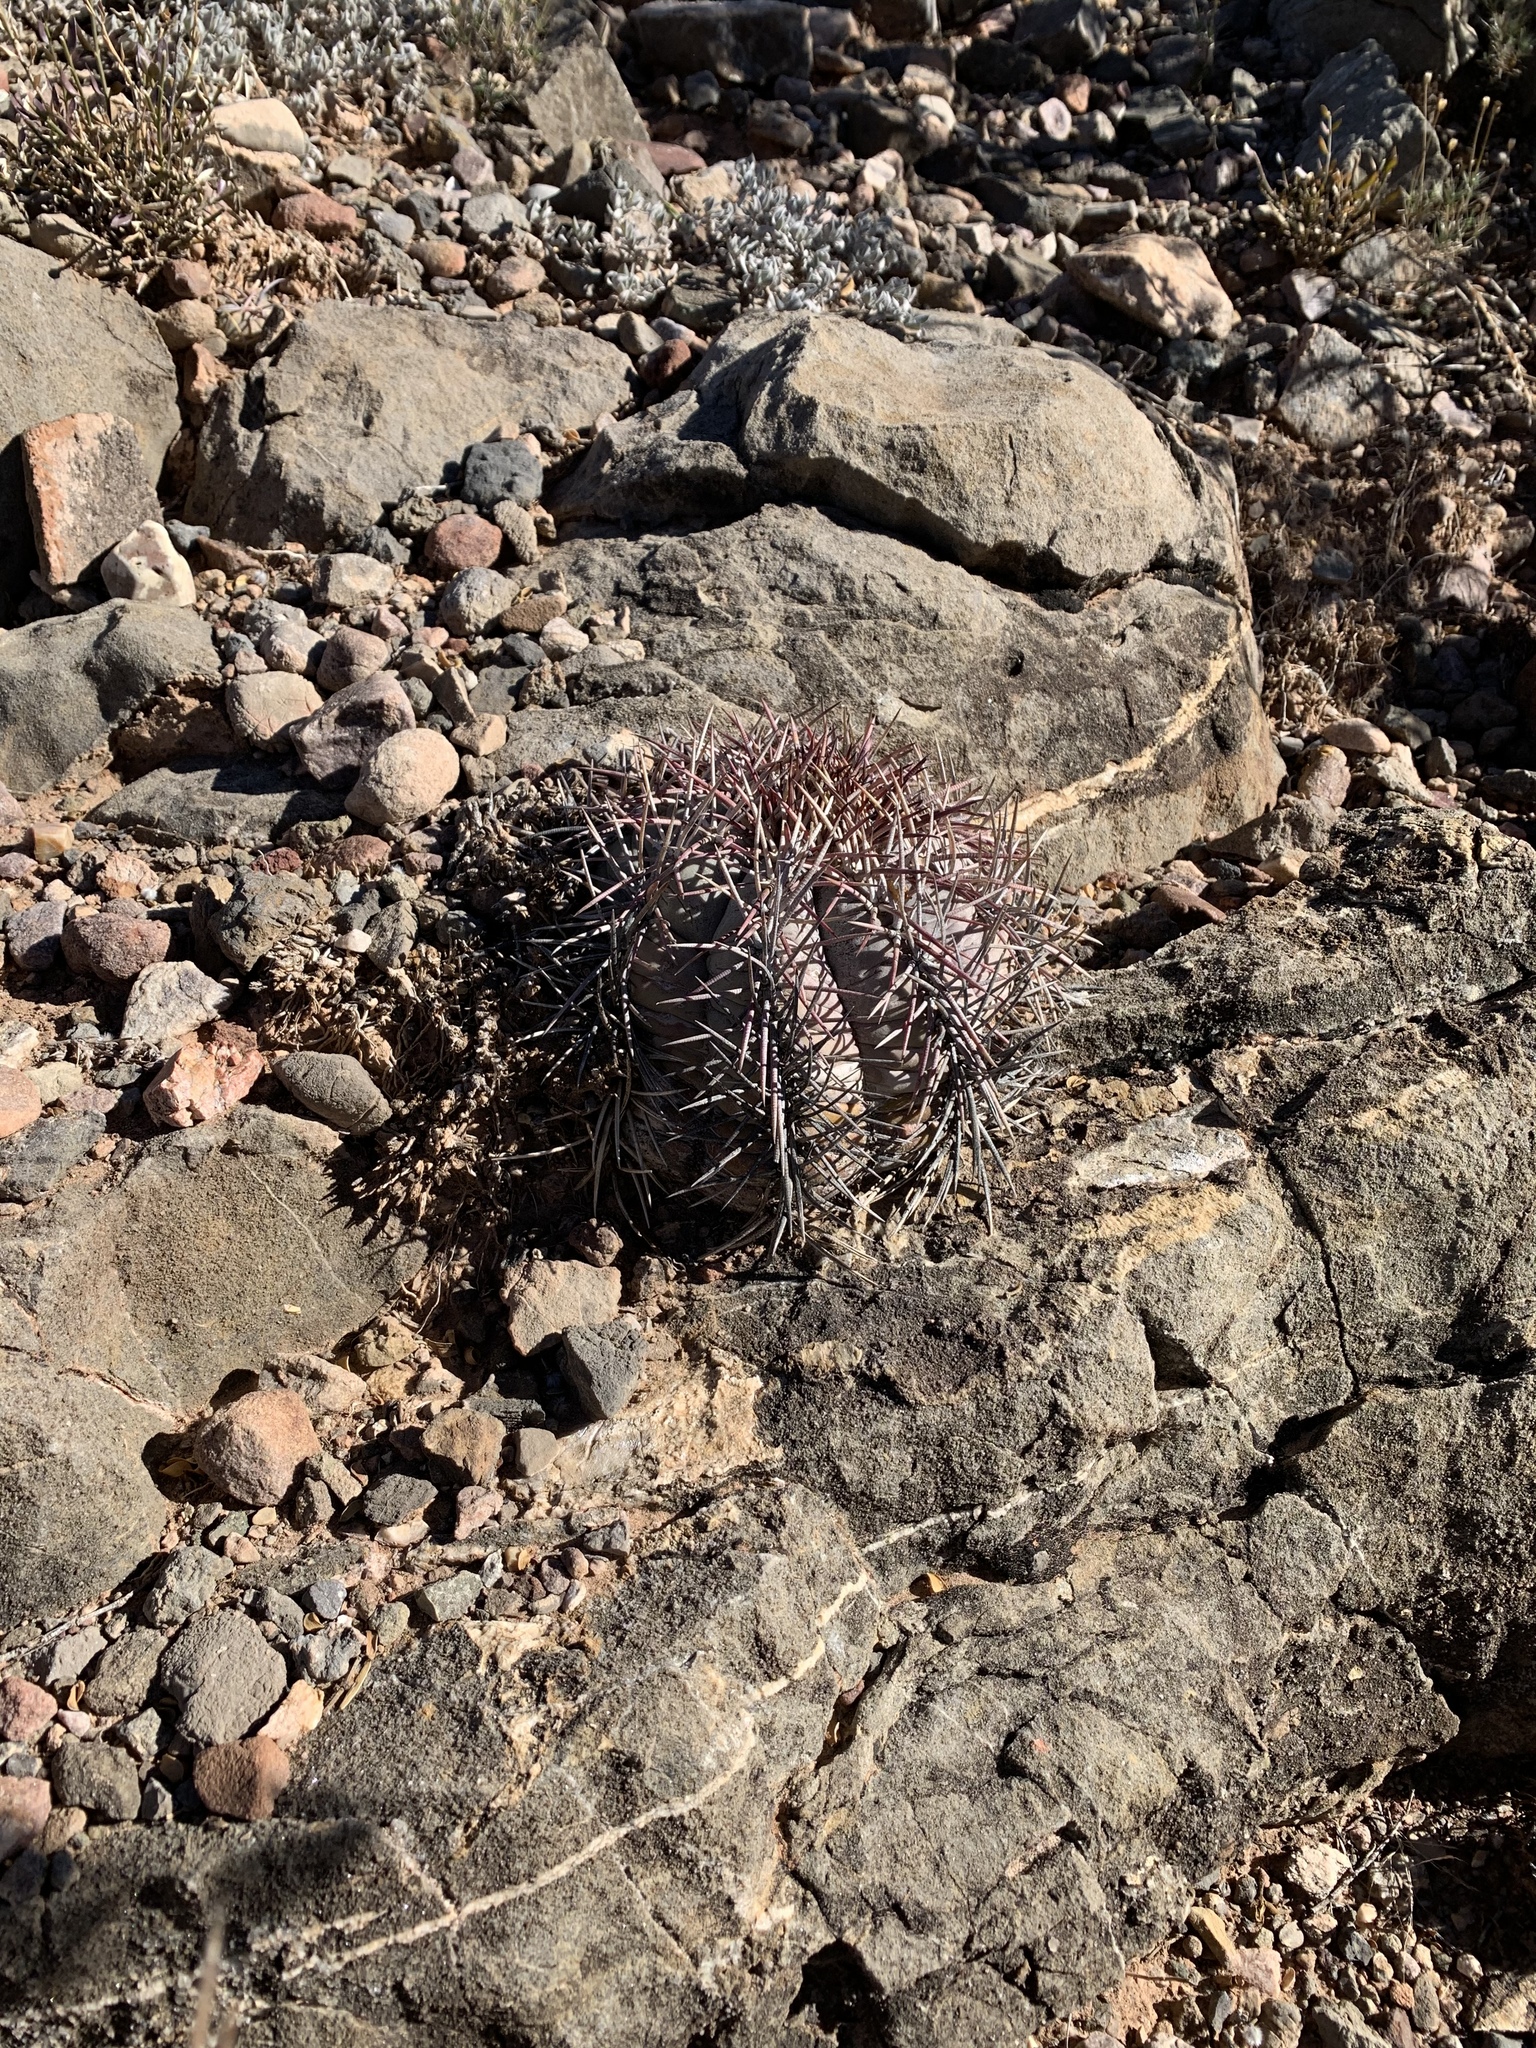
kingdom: Plantae
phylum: Tracheophyta
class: Magnoliopsida
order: Caryophyllales
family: Cactaceae
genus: Echinocactus
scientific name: Echinocactus horizonthalonius
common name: Devilshead
